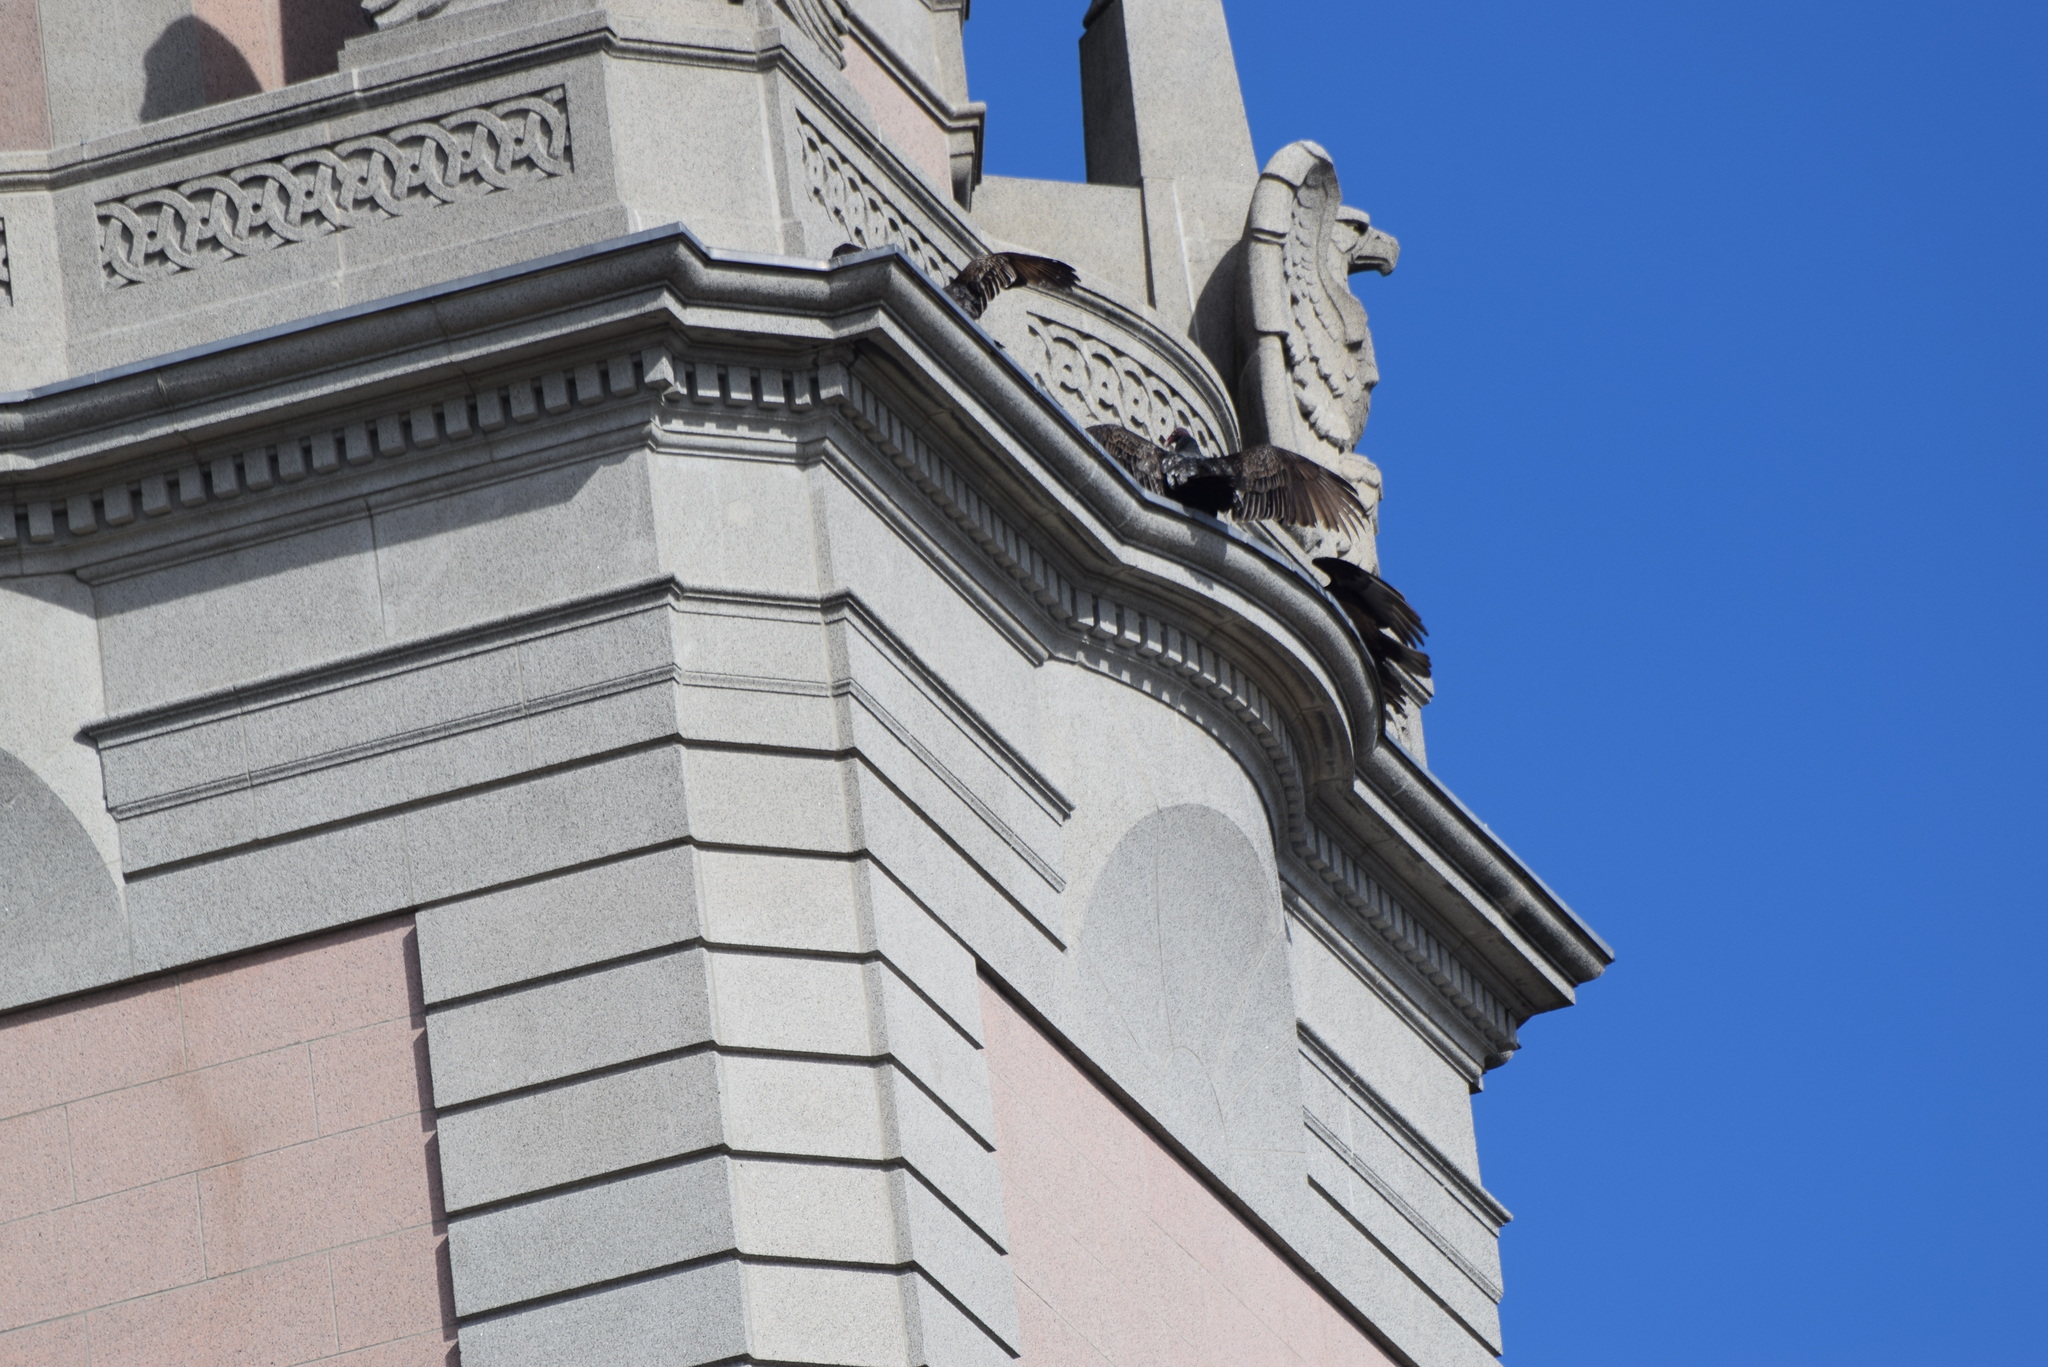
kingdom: Animalia
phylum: Chordata
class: Aves
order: Accipitriformes
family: Cathartidae
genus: Cathartes
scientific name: Cathartes aura
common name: Turkey vulture
